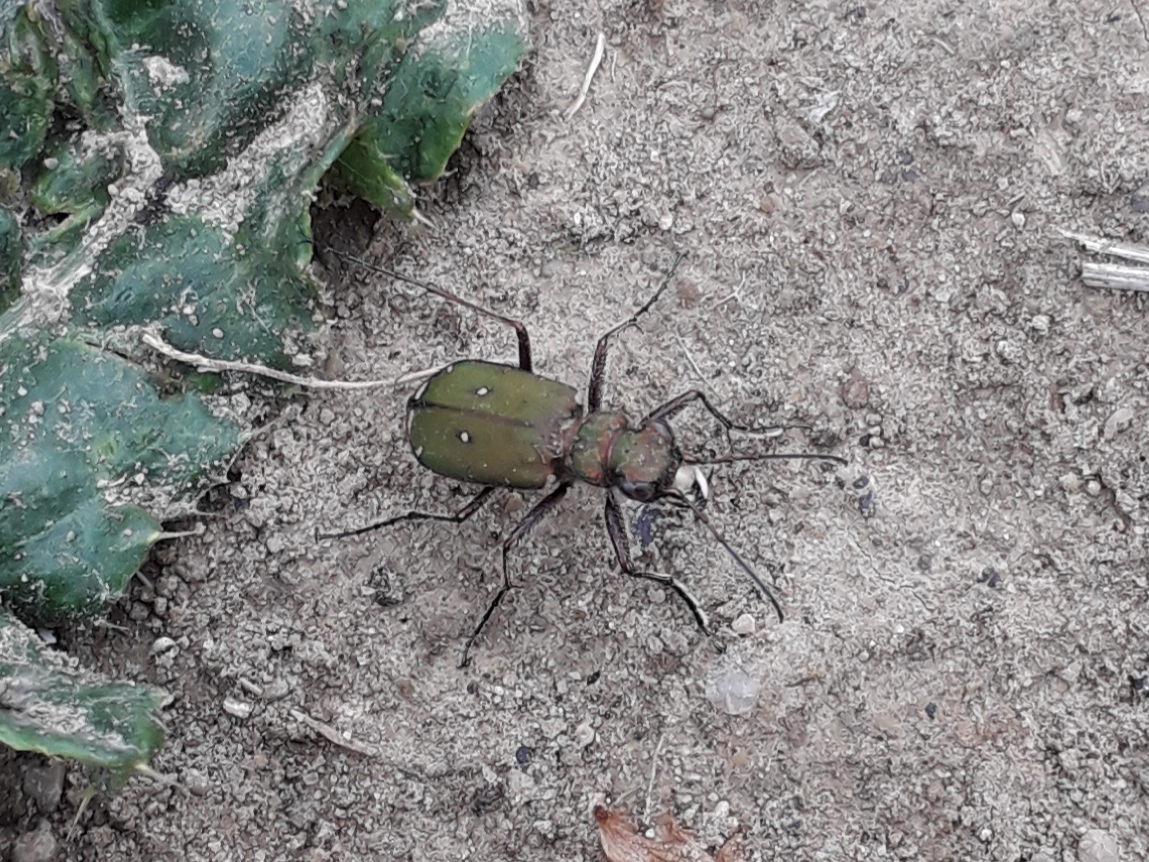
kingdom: Animalia
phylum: Arthropoda
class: Insecta
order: Coleoptera
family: Carabidae
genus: Cicindela
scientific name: Cicindela campestris
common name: Common tiger beetle
